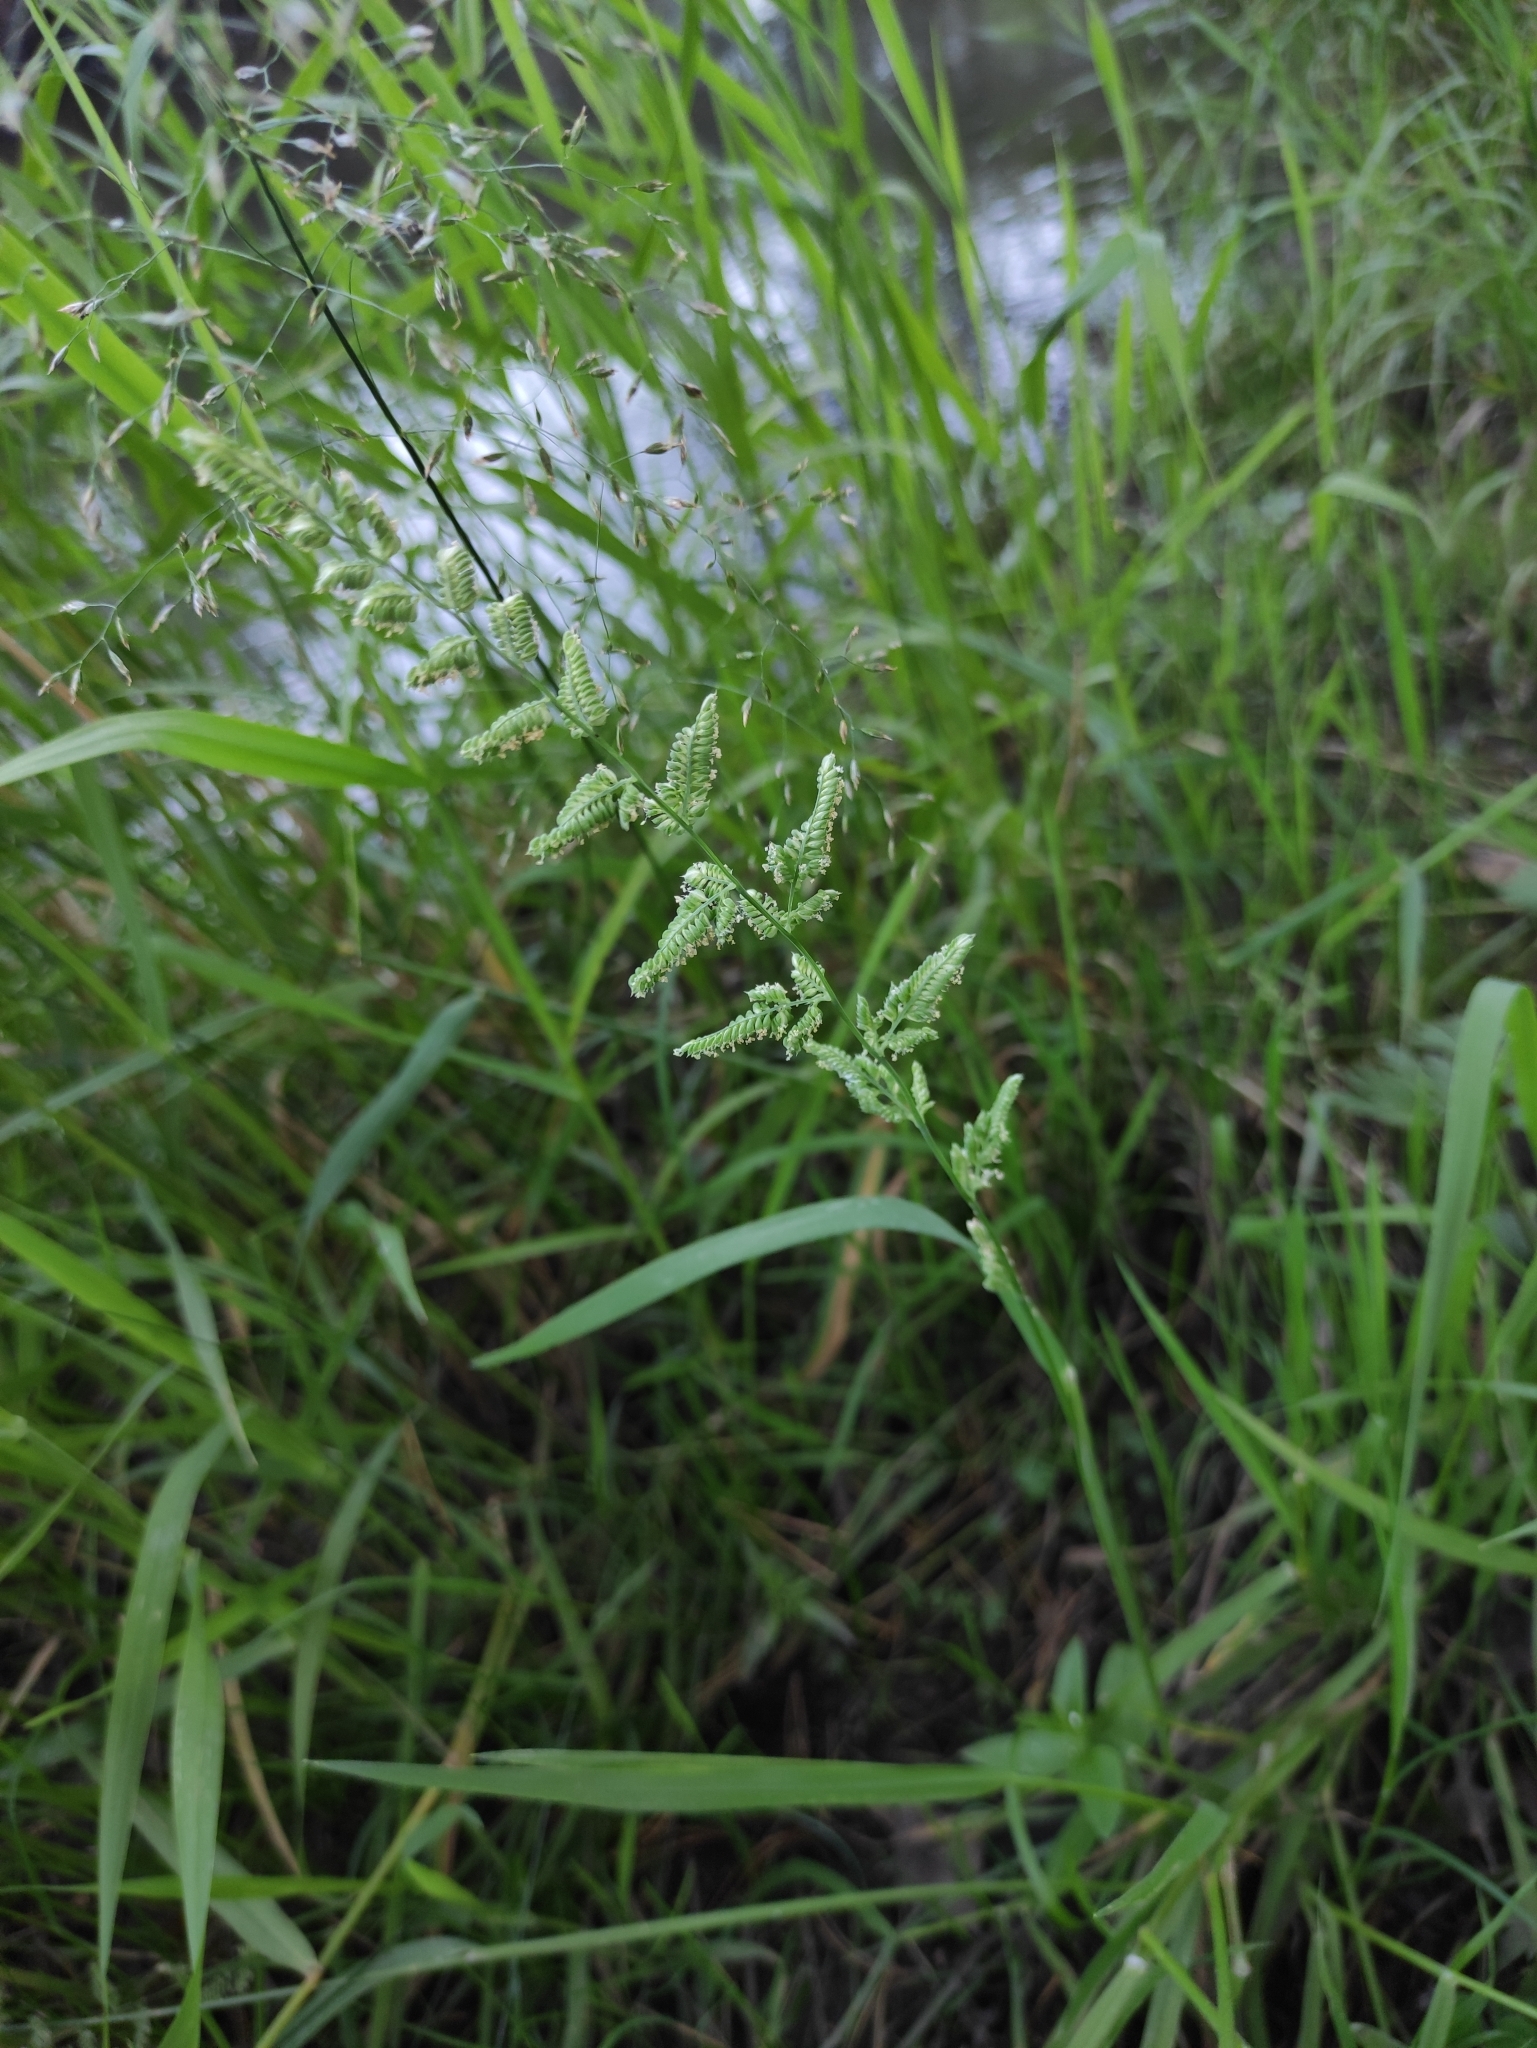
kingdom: Plantae
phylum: Tracheophyta
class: Liliopsida
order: Poales
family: Poaceae
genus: Beckmannia
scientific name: Beckmannia syzigachne
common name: American slough-grass
